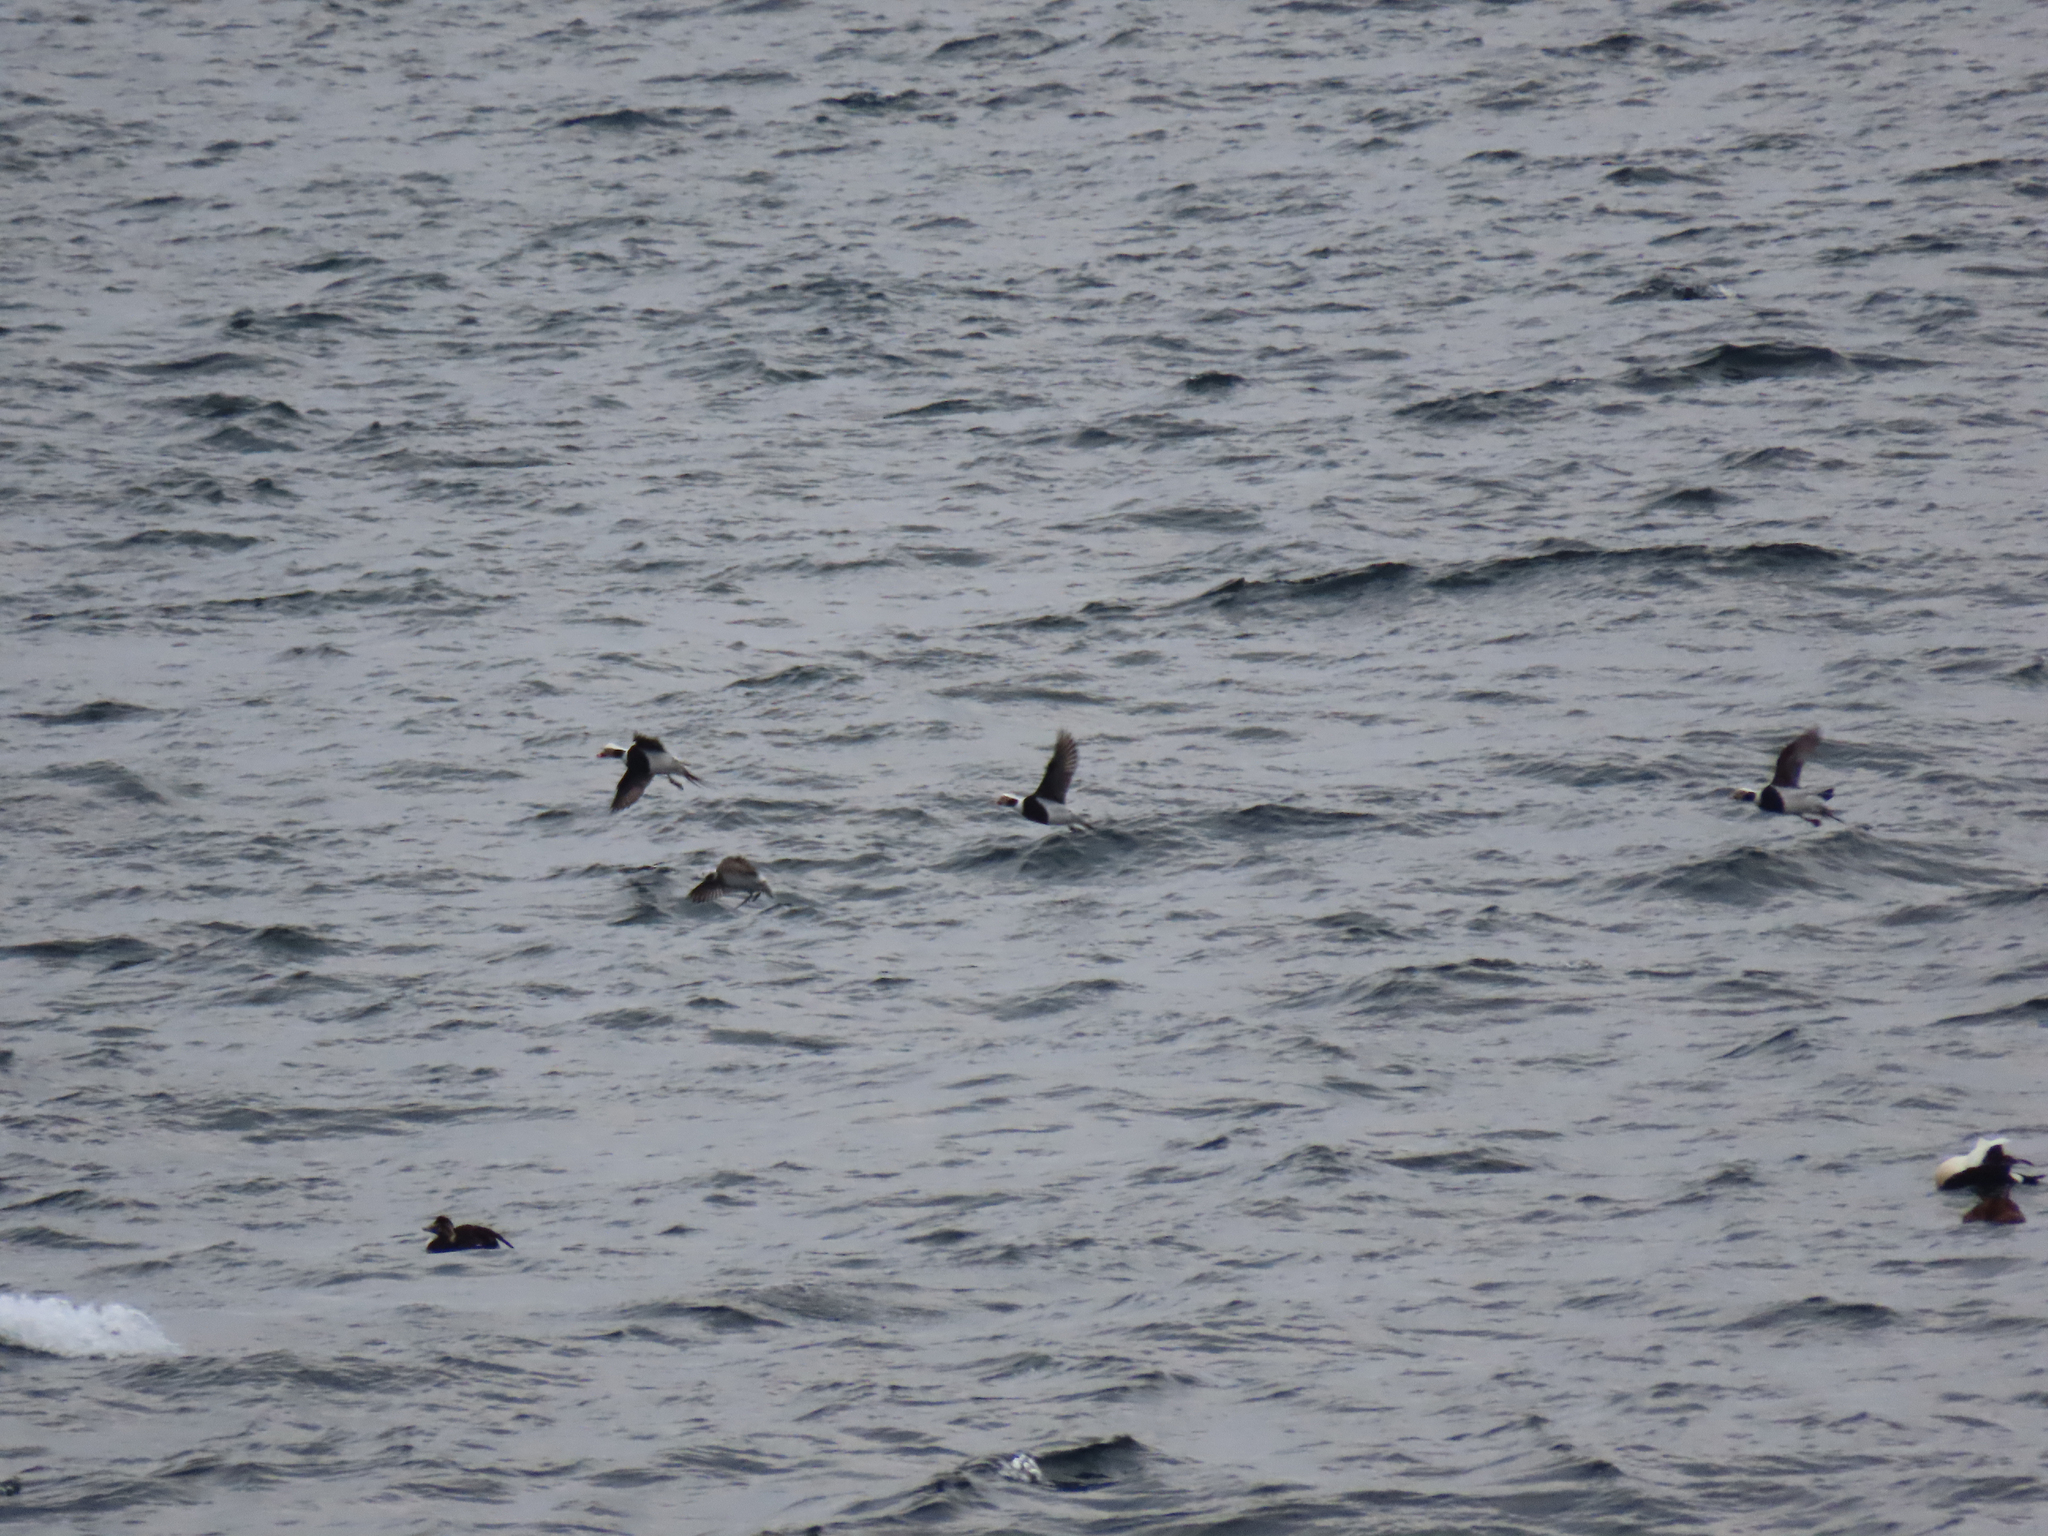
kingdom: Animalia
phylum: Chordata
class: Aves
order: Anseriformes
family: Anatidae
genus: Clangula
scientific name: Clangula hyemalis
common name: Long-tailed duck
